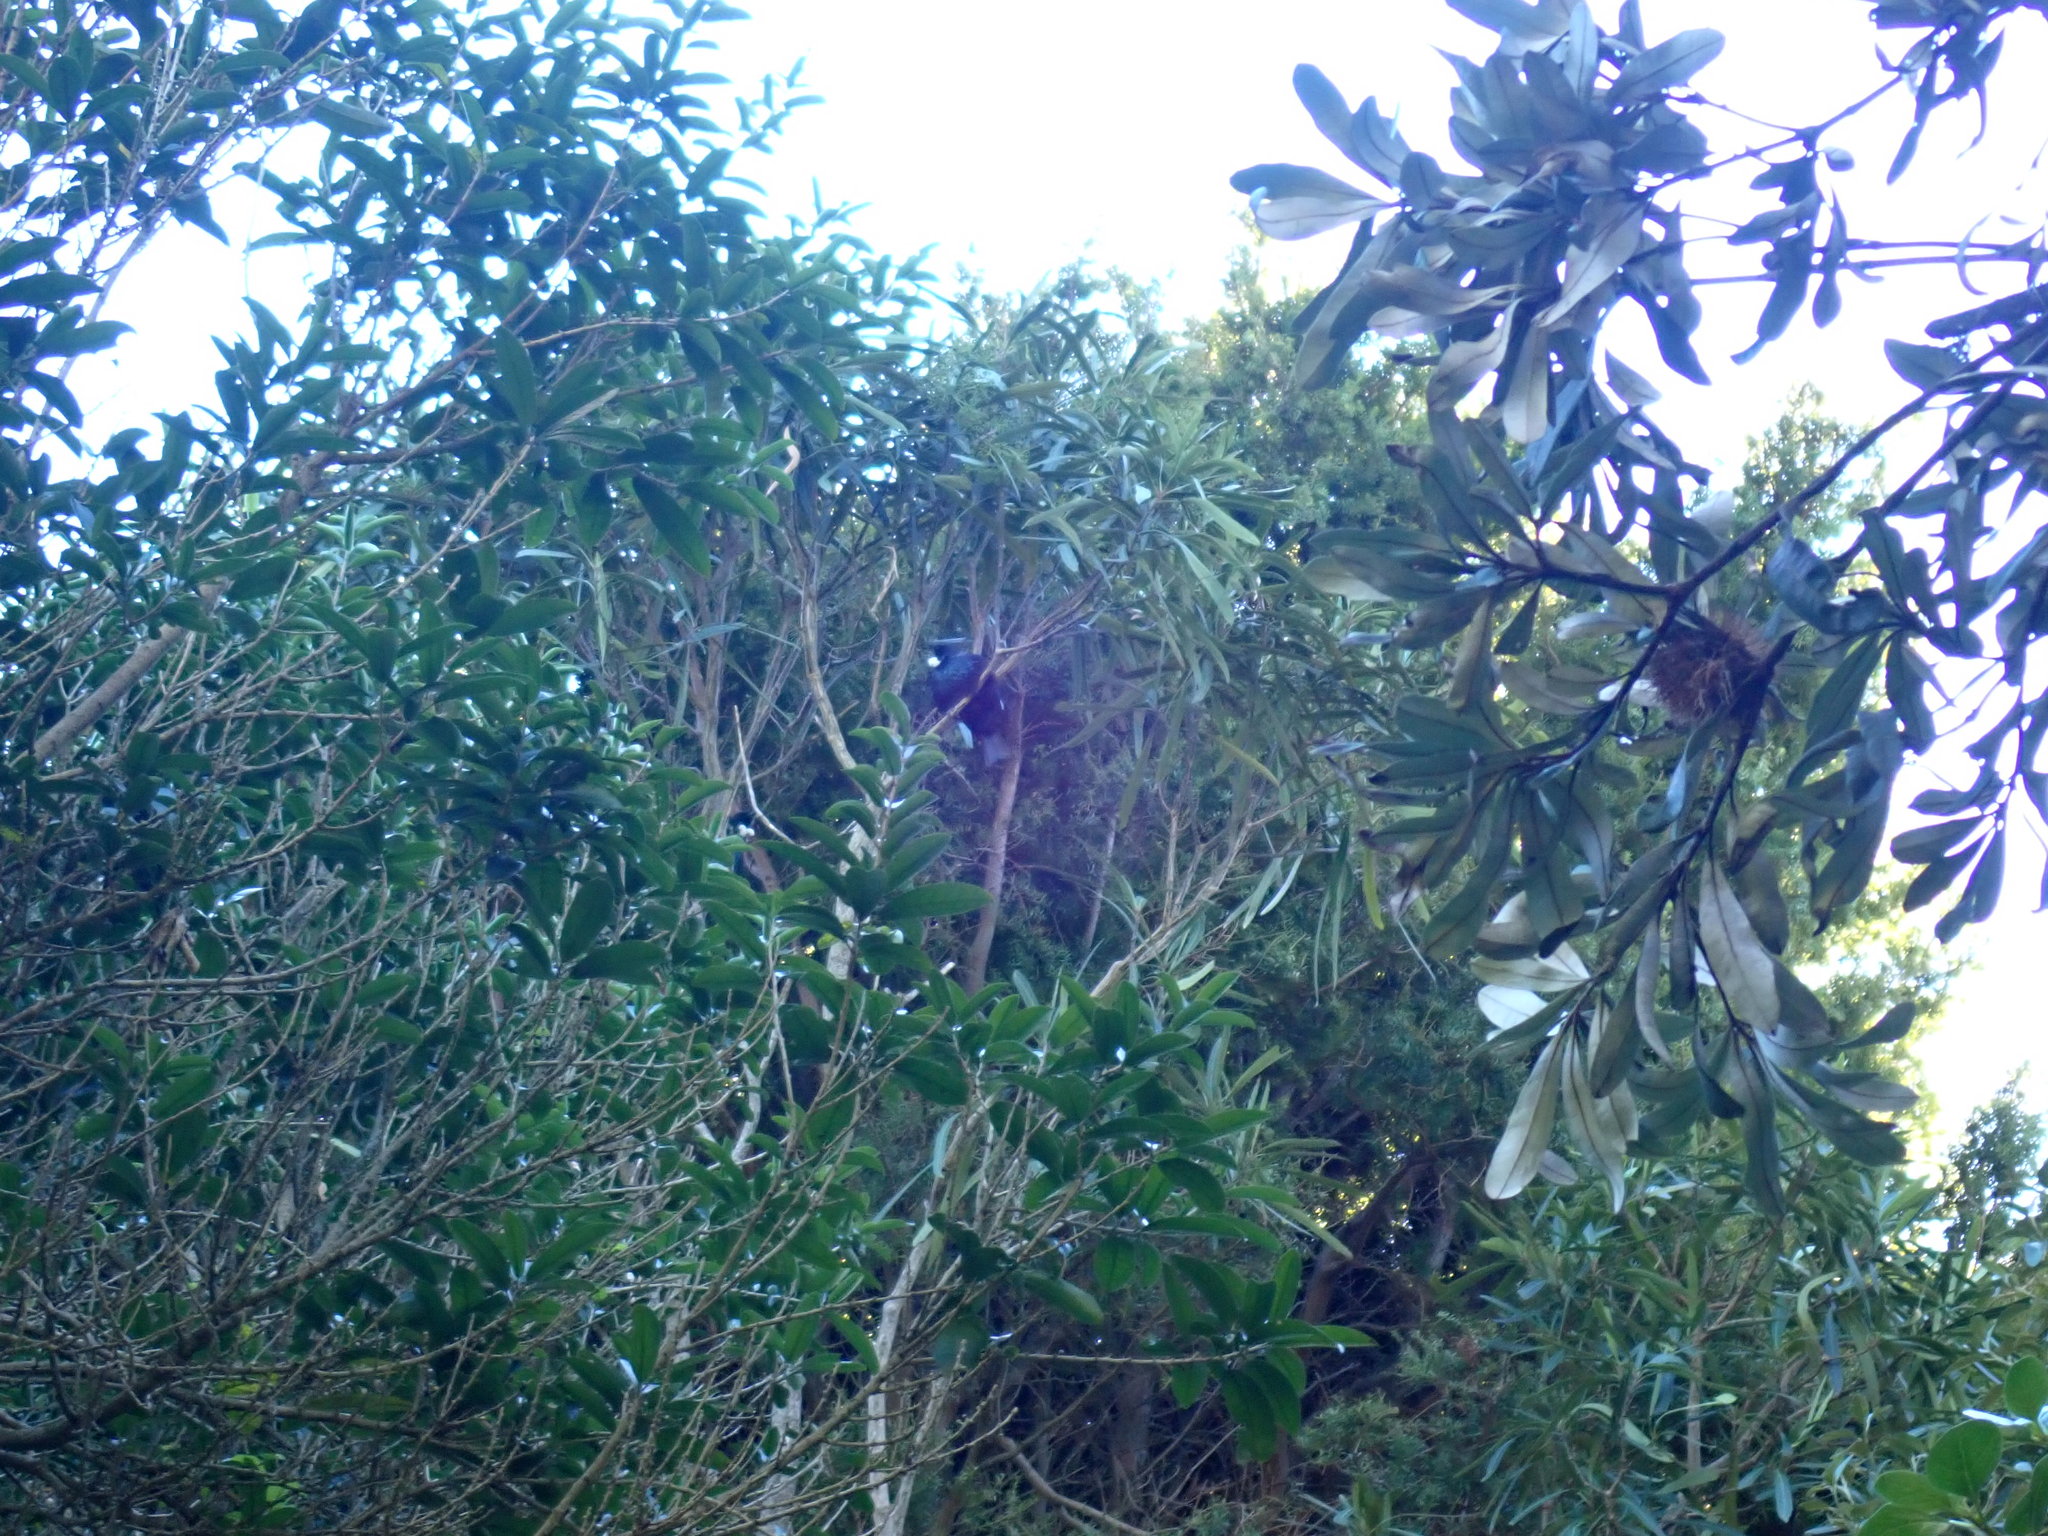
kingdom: Animalia
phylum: Chordata
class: Aves
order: Passeriformes
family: Meliphagidae
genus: Prosthemadera
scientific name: Prosthemadera novaeseelandiae
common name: Tui
